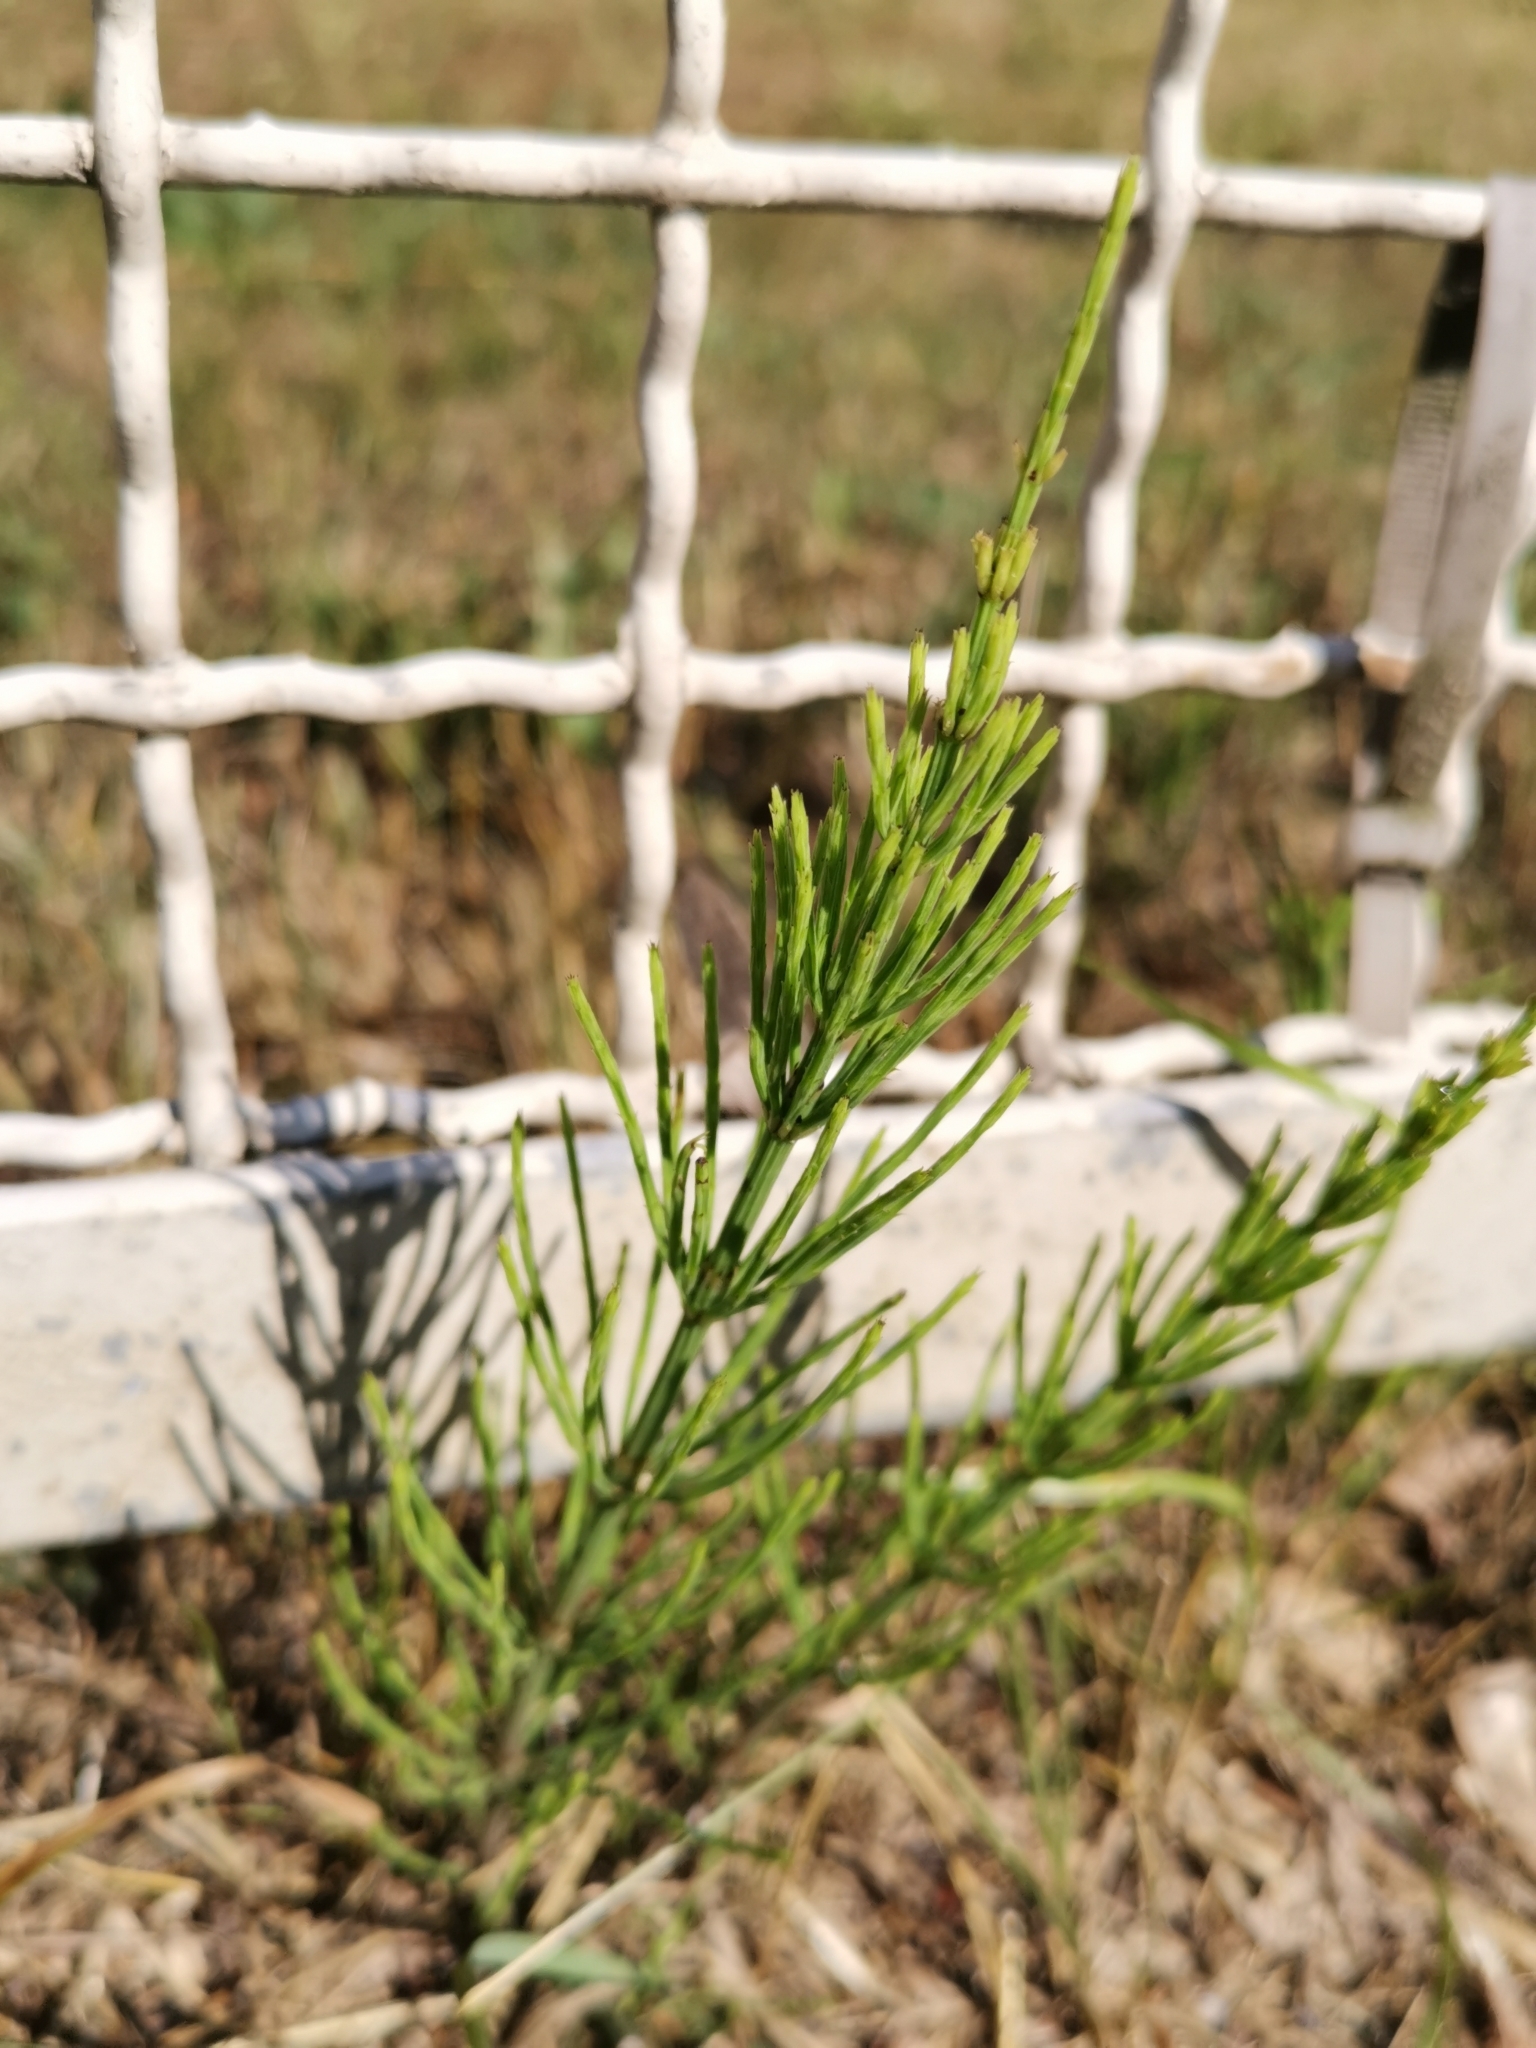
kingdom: Plantae
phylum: Tracheophyta
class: Polypodiopsida
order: Equisetales
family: Equisetaceae
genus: Equisetum
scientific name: Equisetum arvense
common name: Field horsetail
